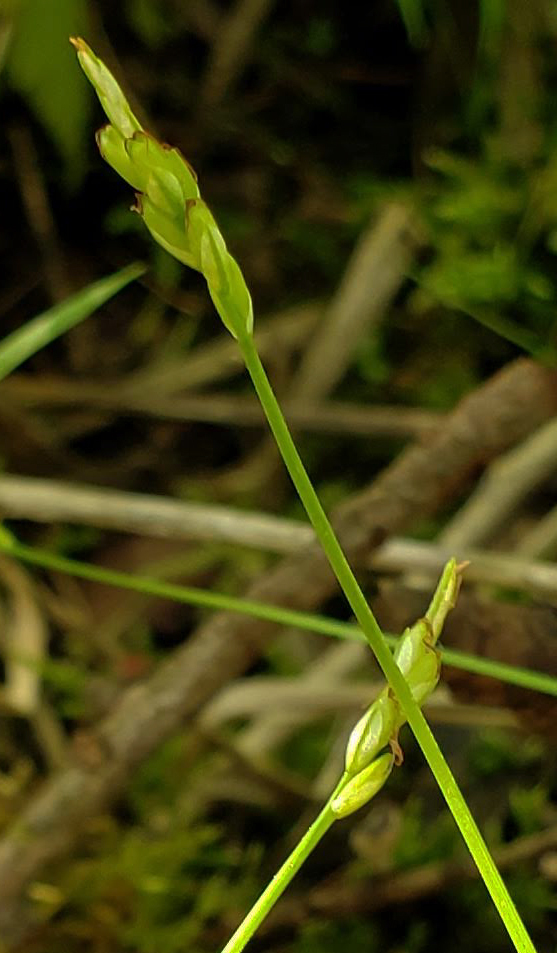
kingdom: Plantae
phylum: Tracheophyta
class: Liliopsida
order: Poales
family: Cyperaceae
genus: Carex
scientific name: Carex leptalea
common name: Bristly-stalked sedge
